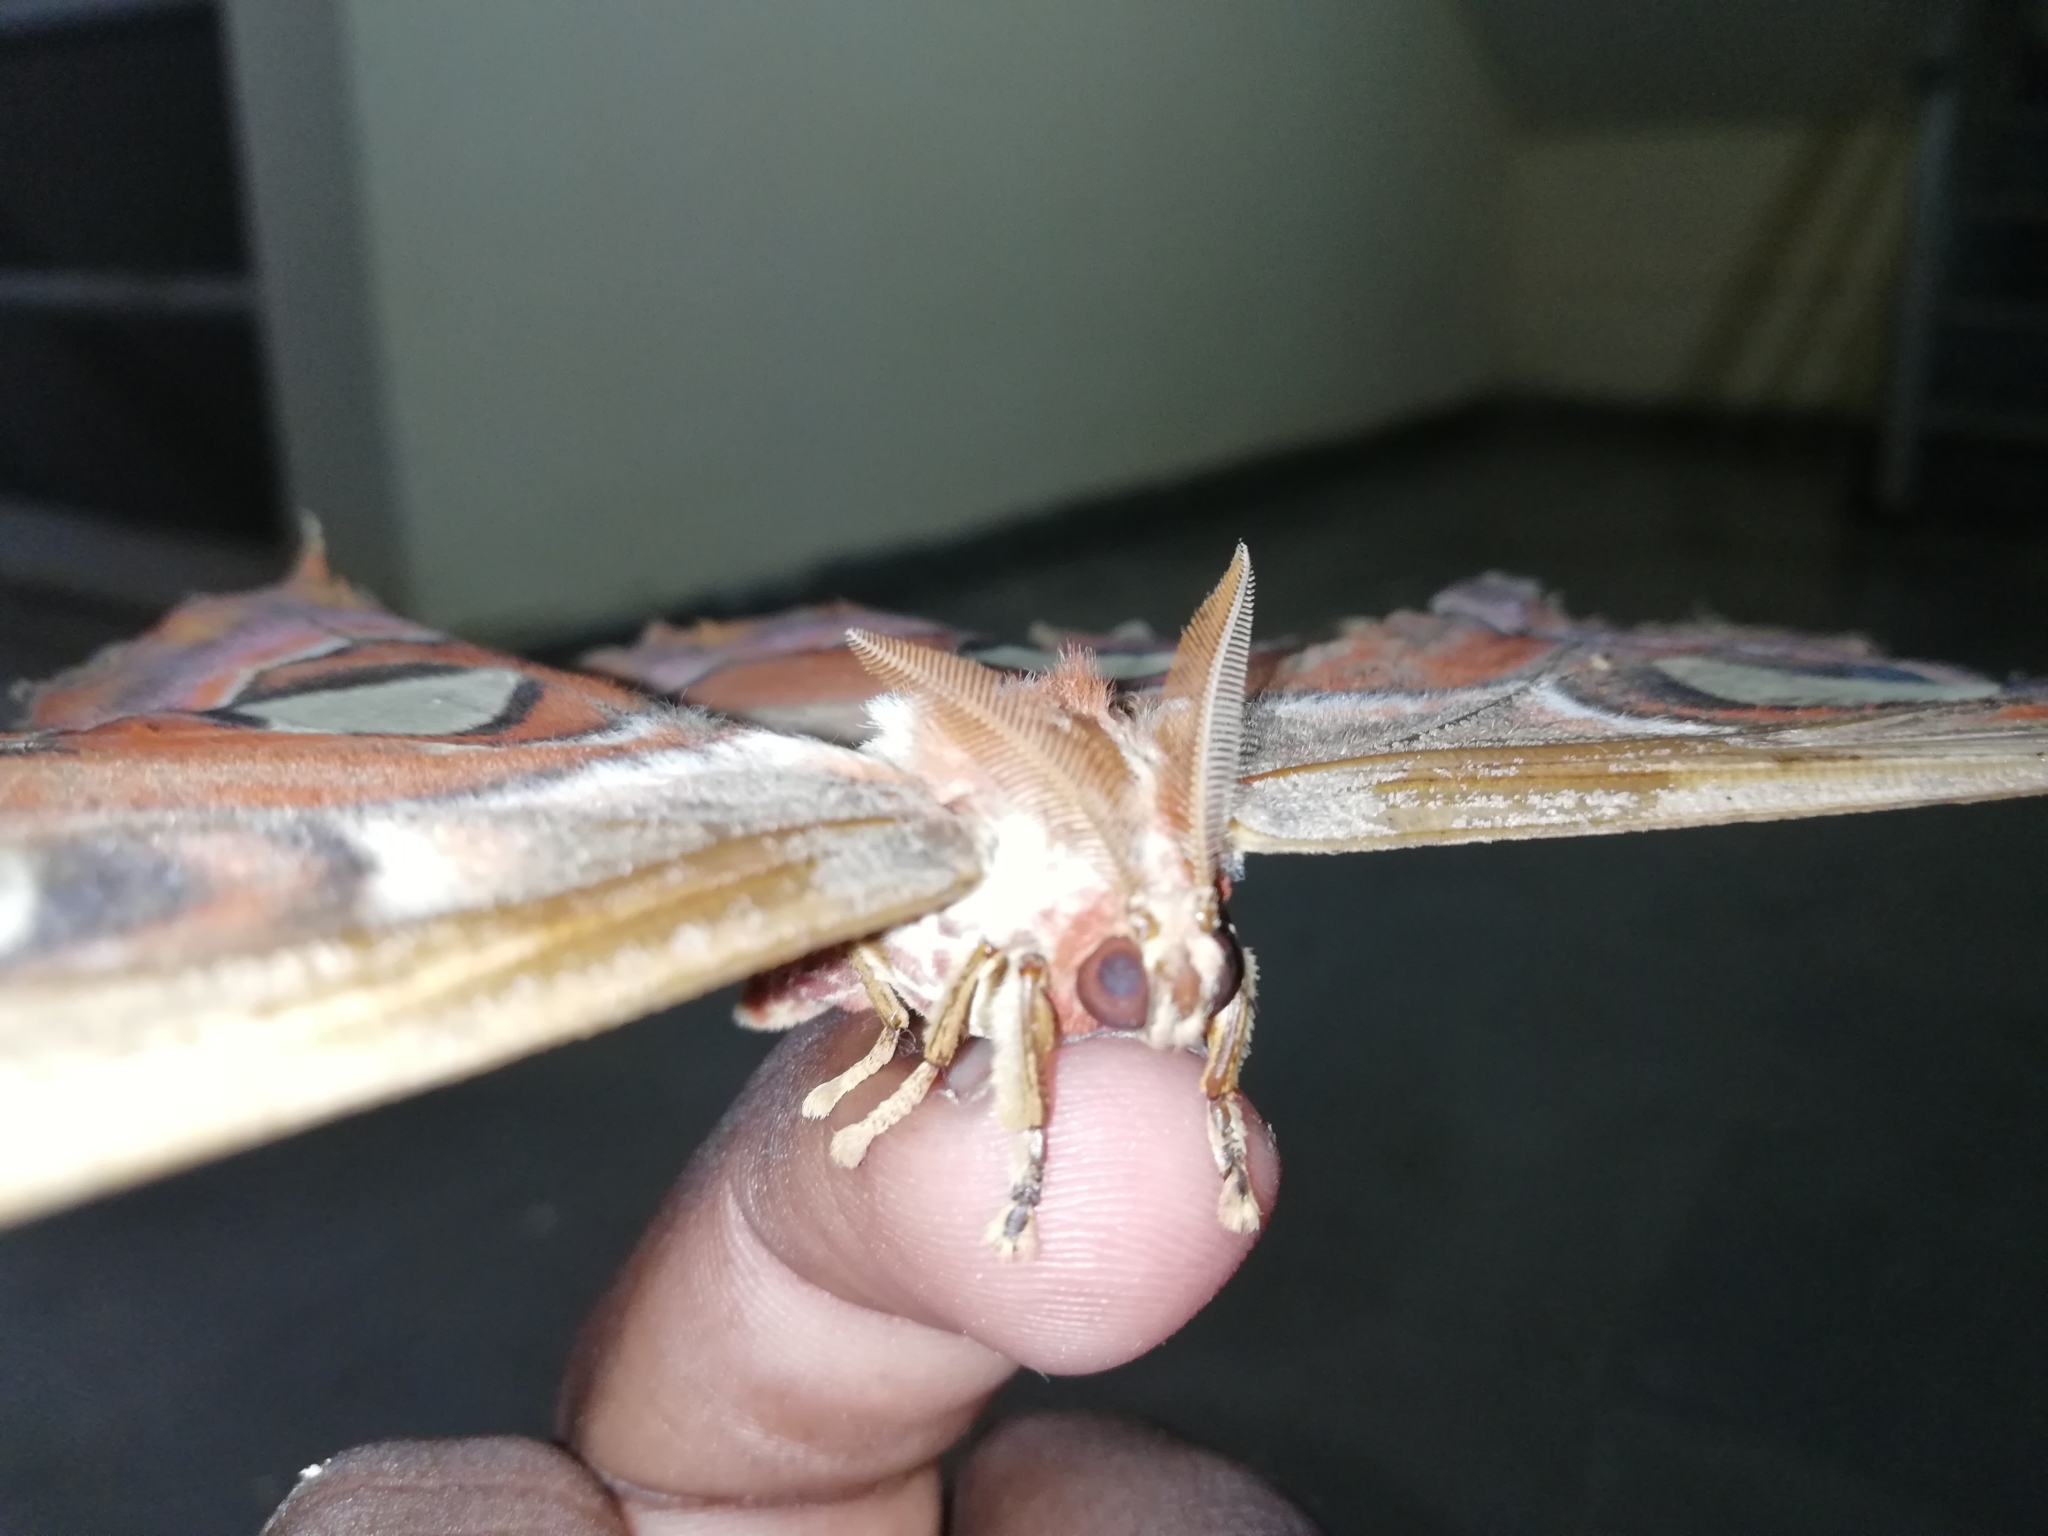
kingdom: Animalia
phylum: Arthropoda
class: Insecta
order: Lepidoptera
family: Saturniidae
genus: Attacus
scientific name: Attacus taprobanis
